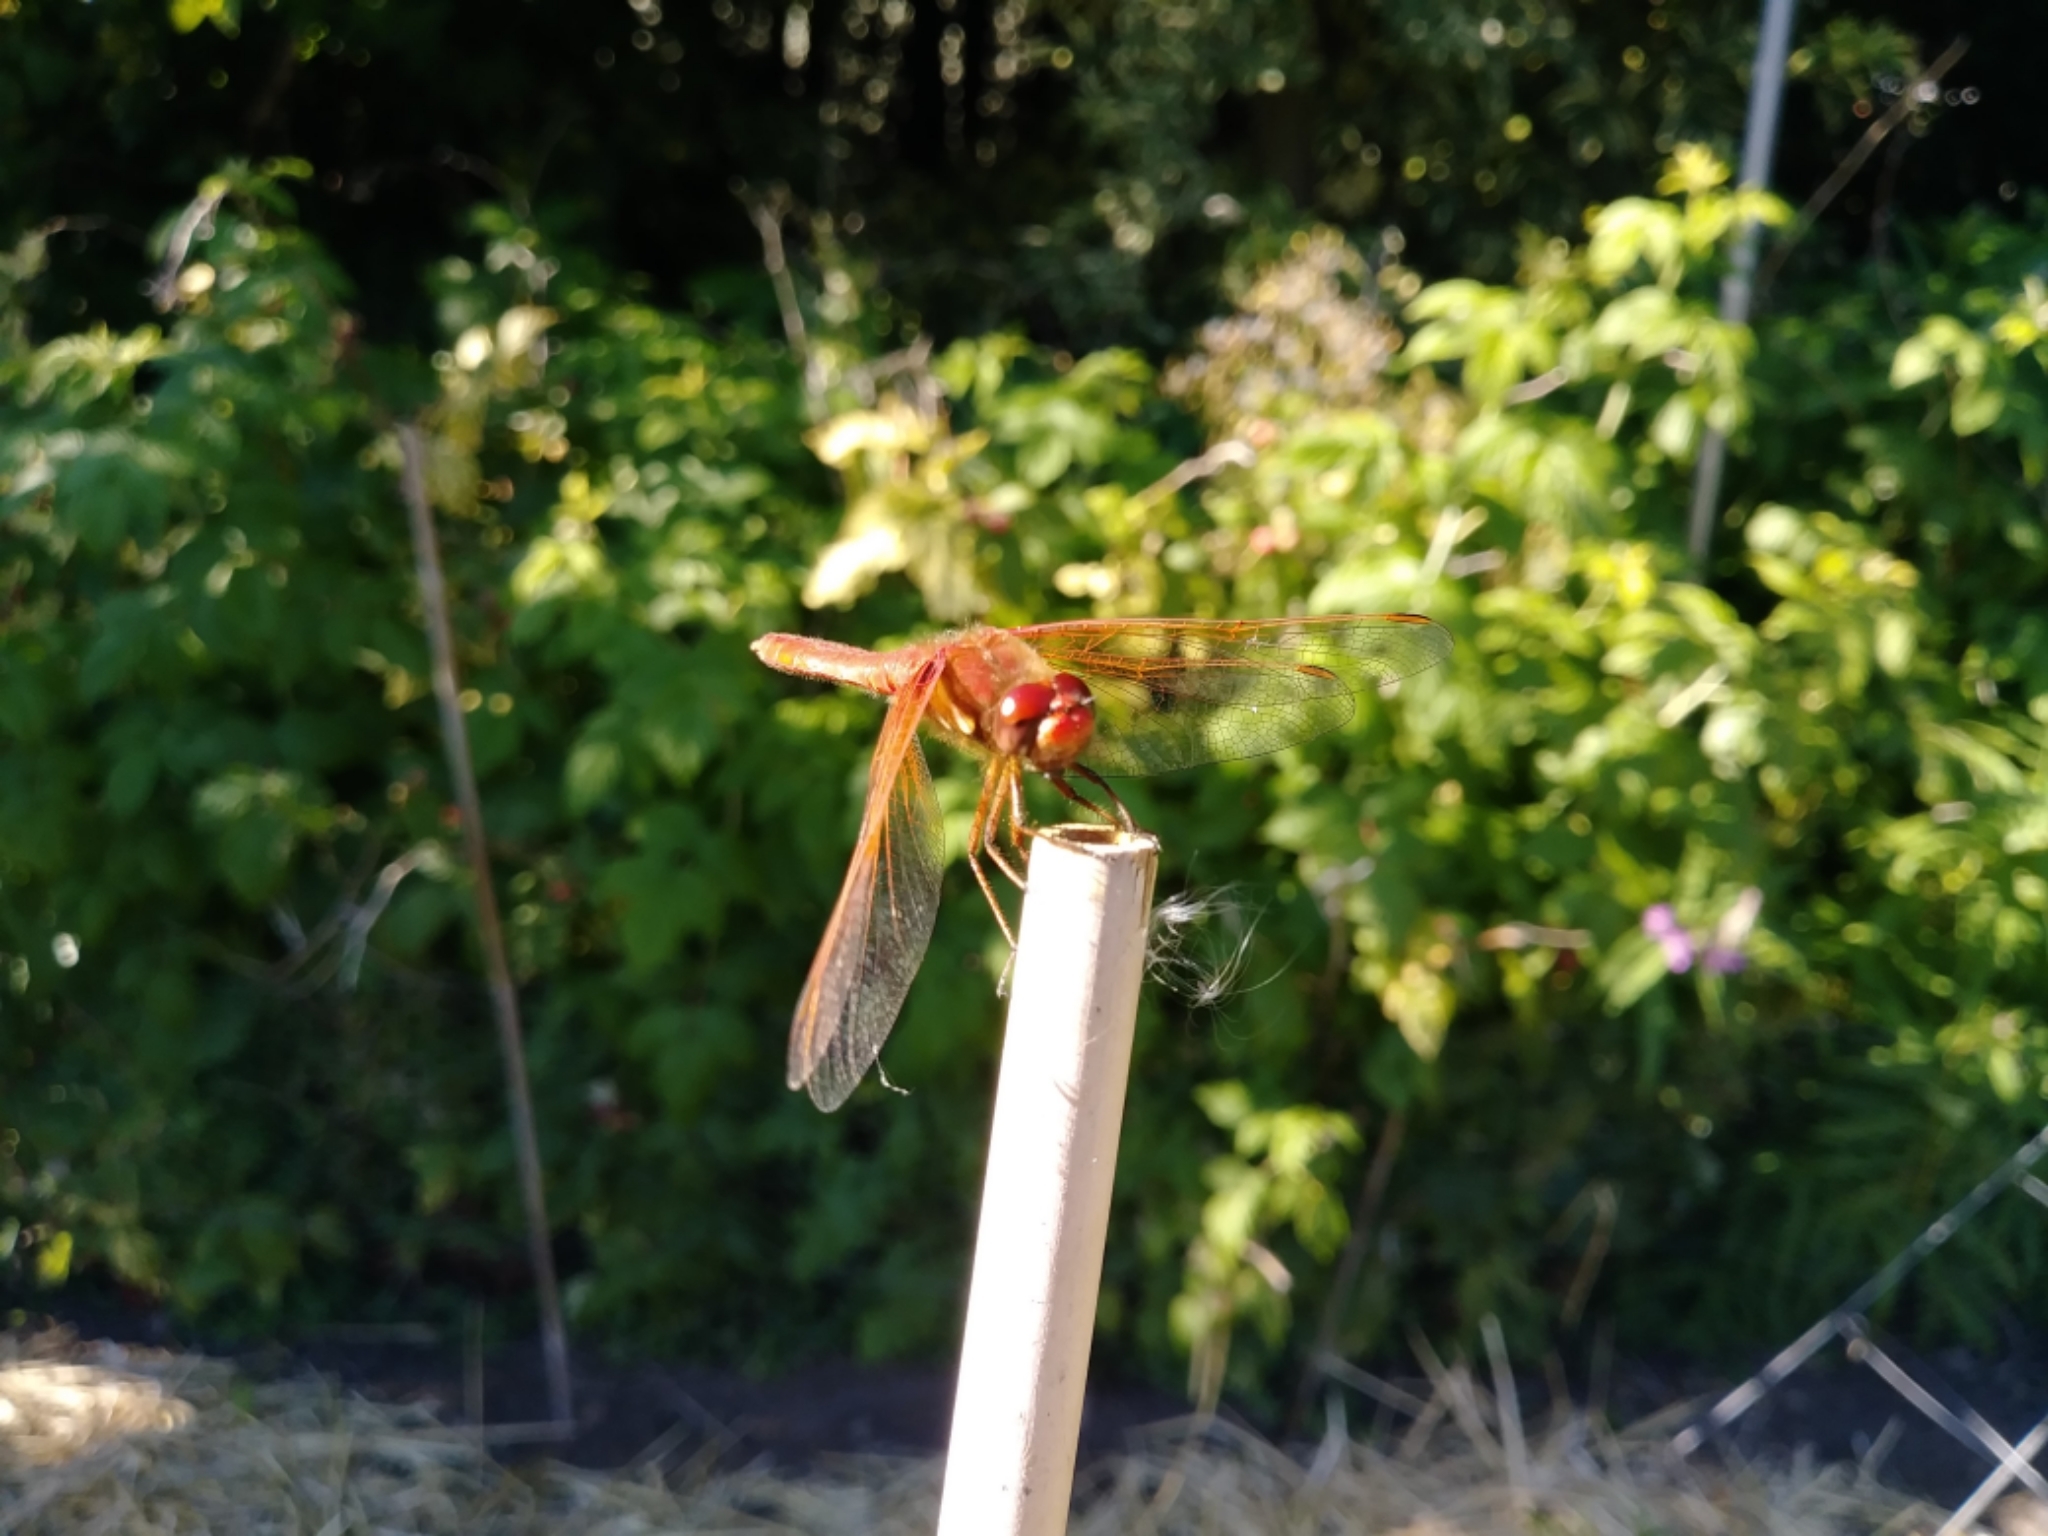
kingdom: Animalia
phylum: Arthropoda
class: Insecta
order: Odonata
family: Libellulidae
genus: Sympetrum
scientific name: Sympetrum illotum
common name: Cardinal meadowhawk
